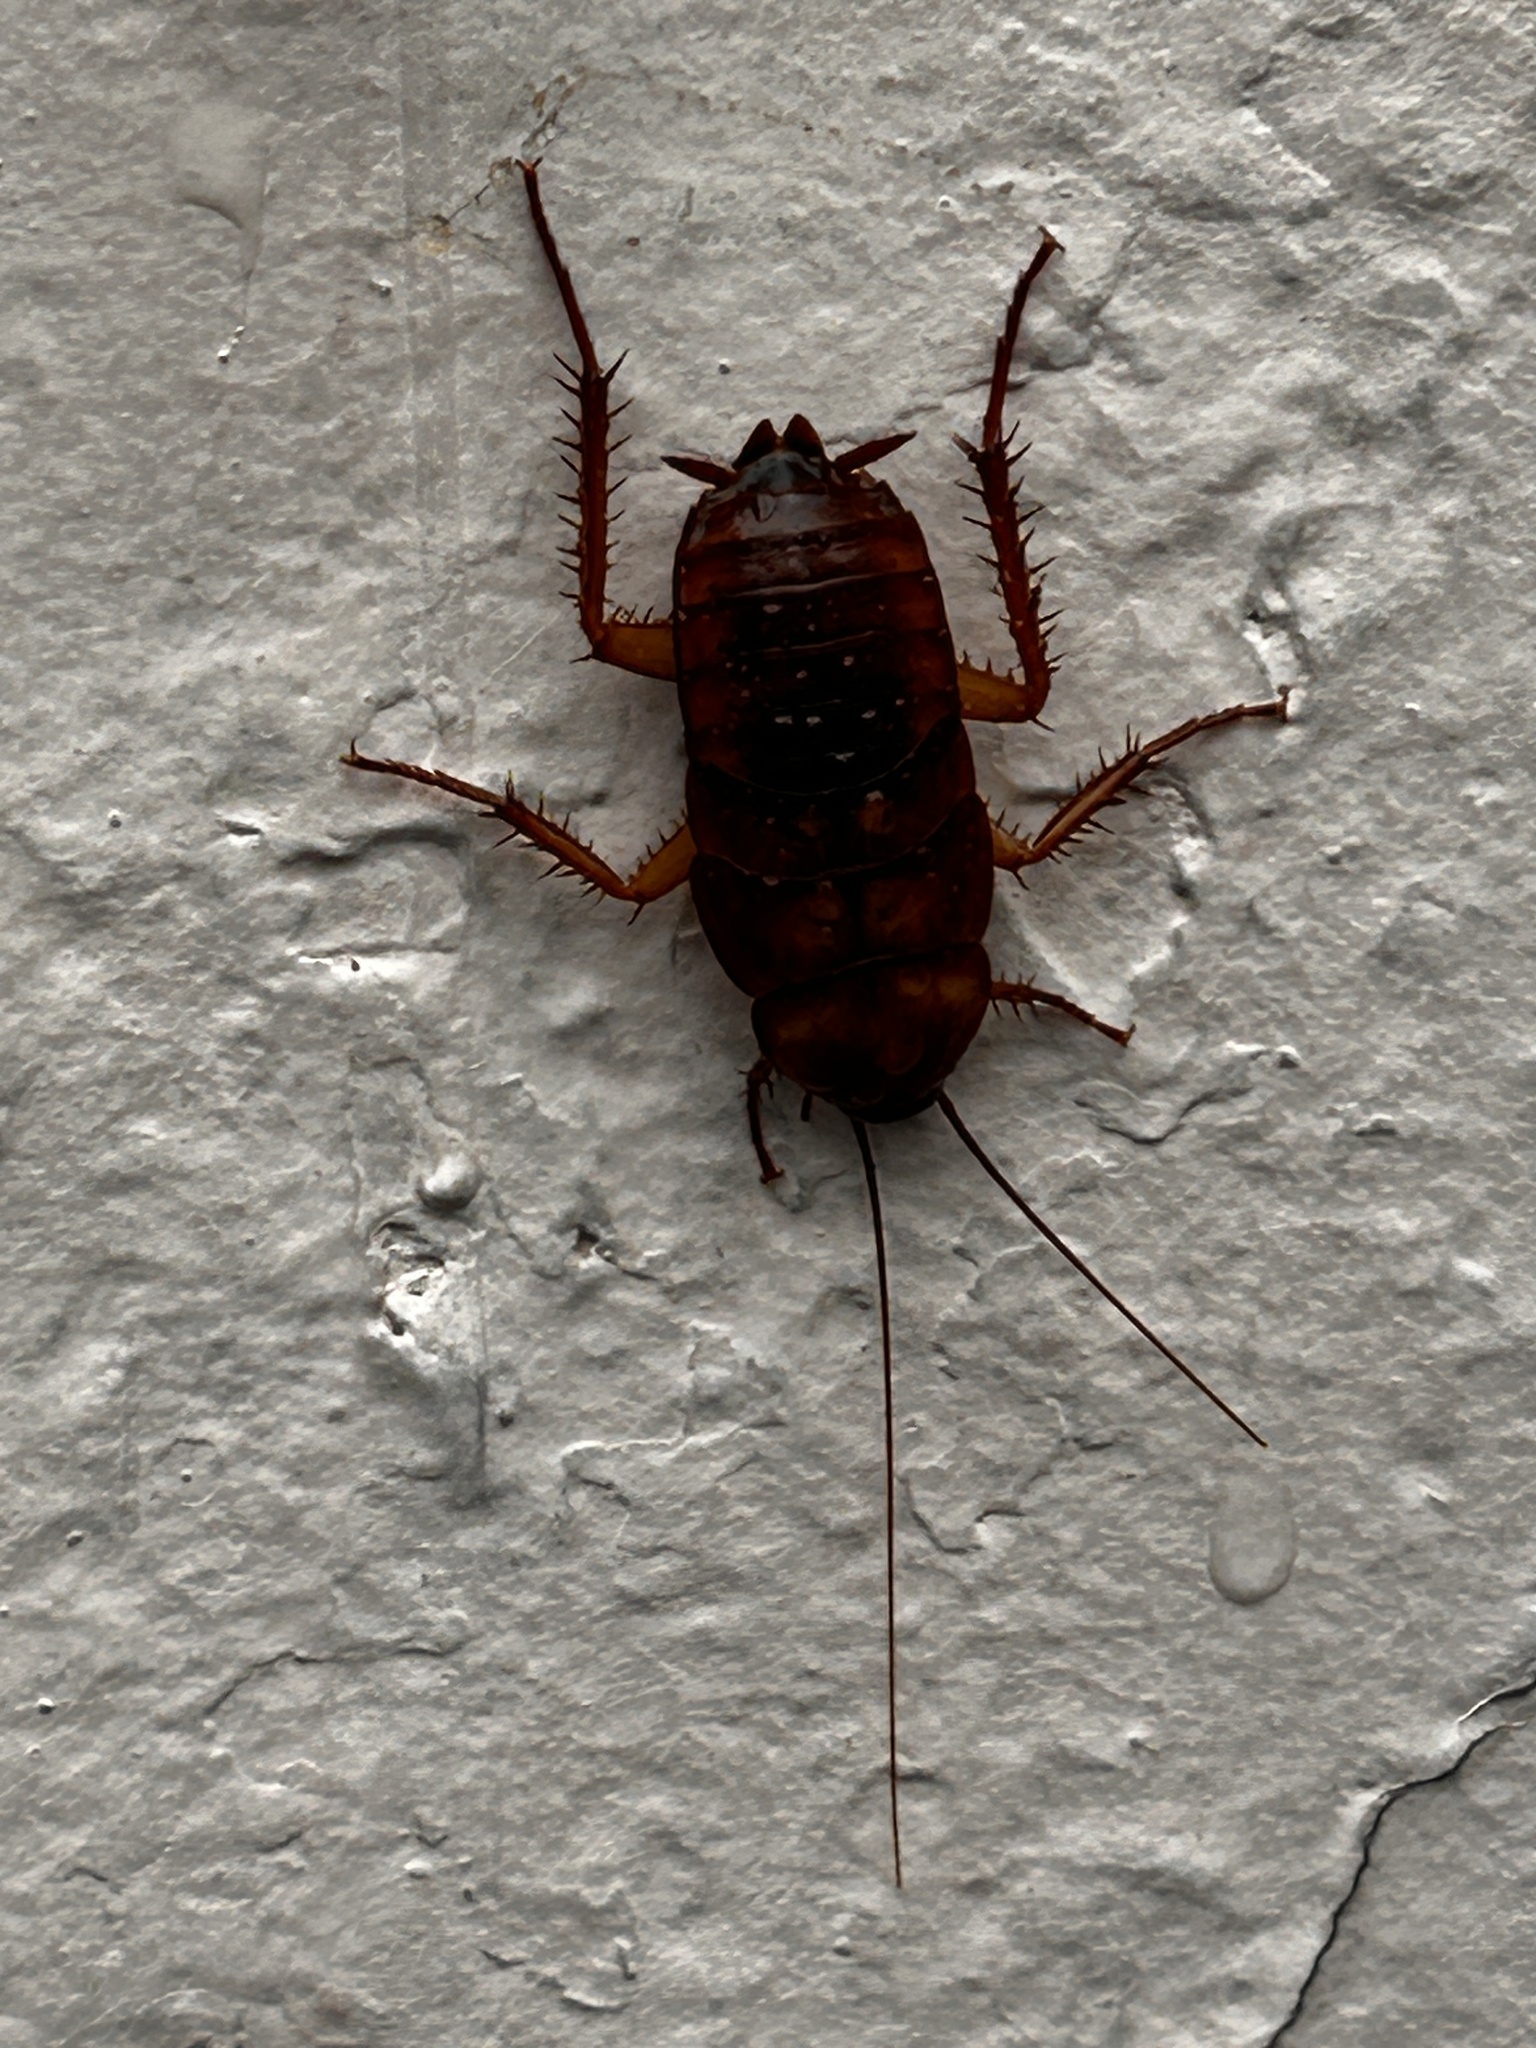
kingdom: Animalia
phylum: Arthropoda
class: Insecta
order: Blattodea
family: Blattidae
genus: Periplaneta
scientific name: Periplaneta americana
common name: American cockroach
